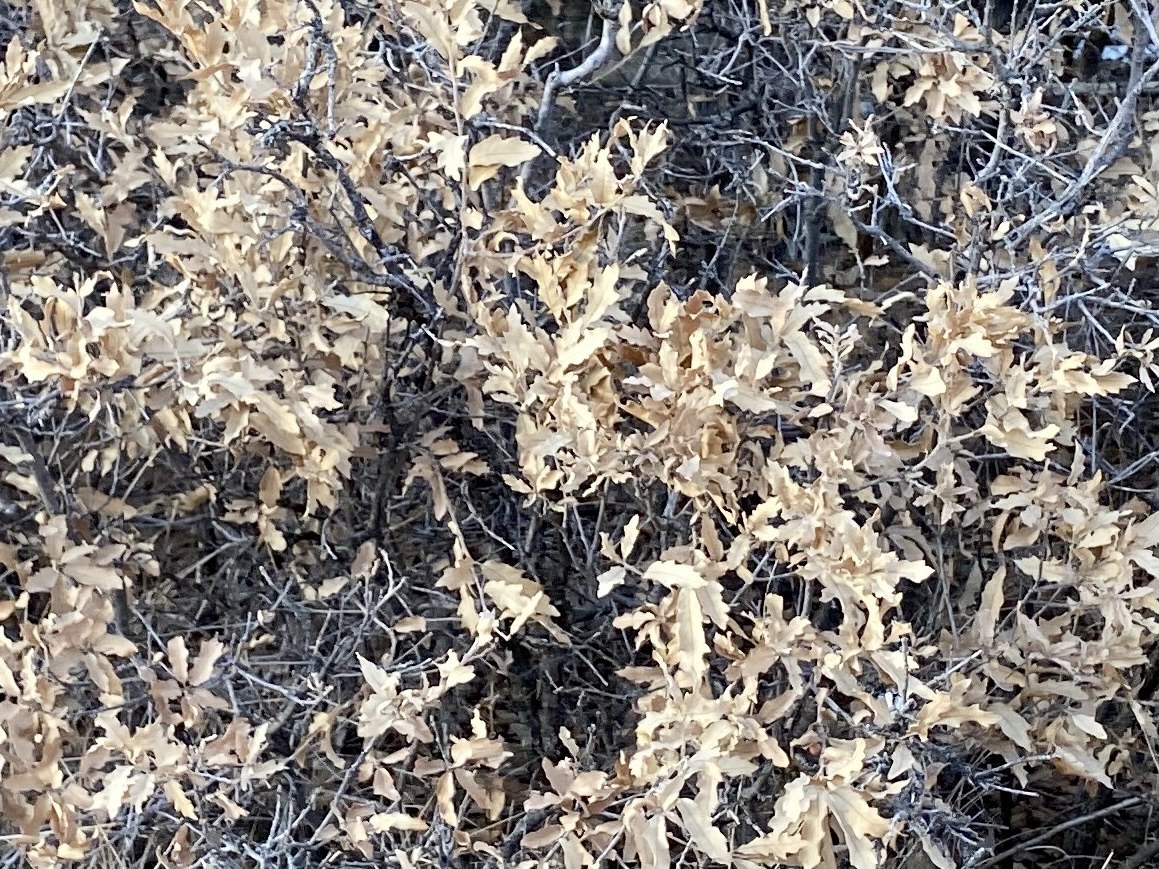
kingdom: Plantae
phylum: Tracheophyta
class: Magnoliopsida
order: Fagales
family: Fagaceae
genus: Quercus
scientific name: Quercus undulata
